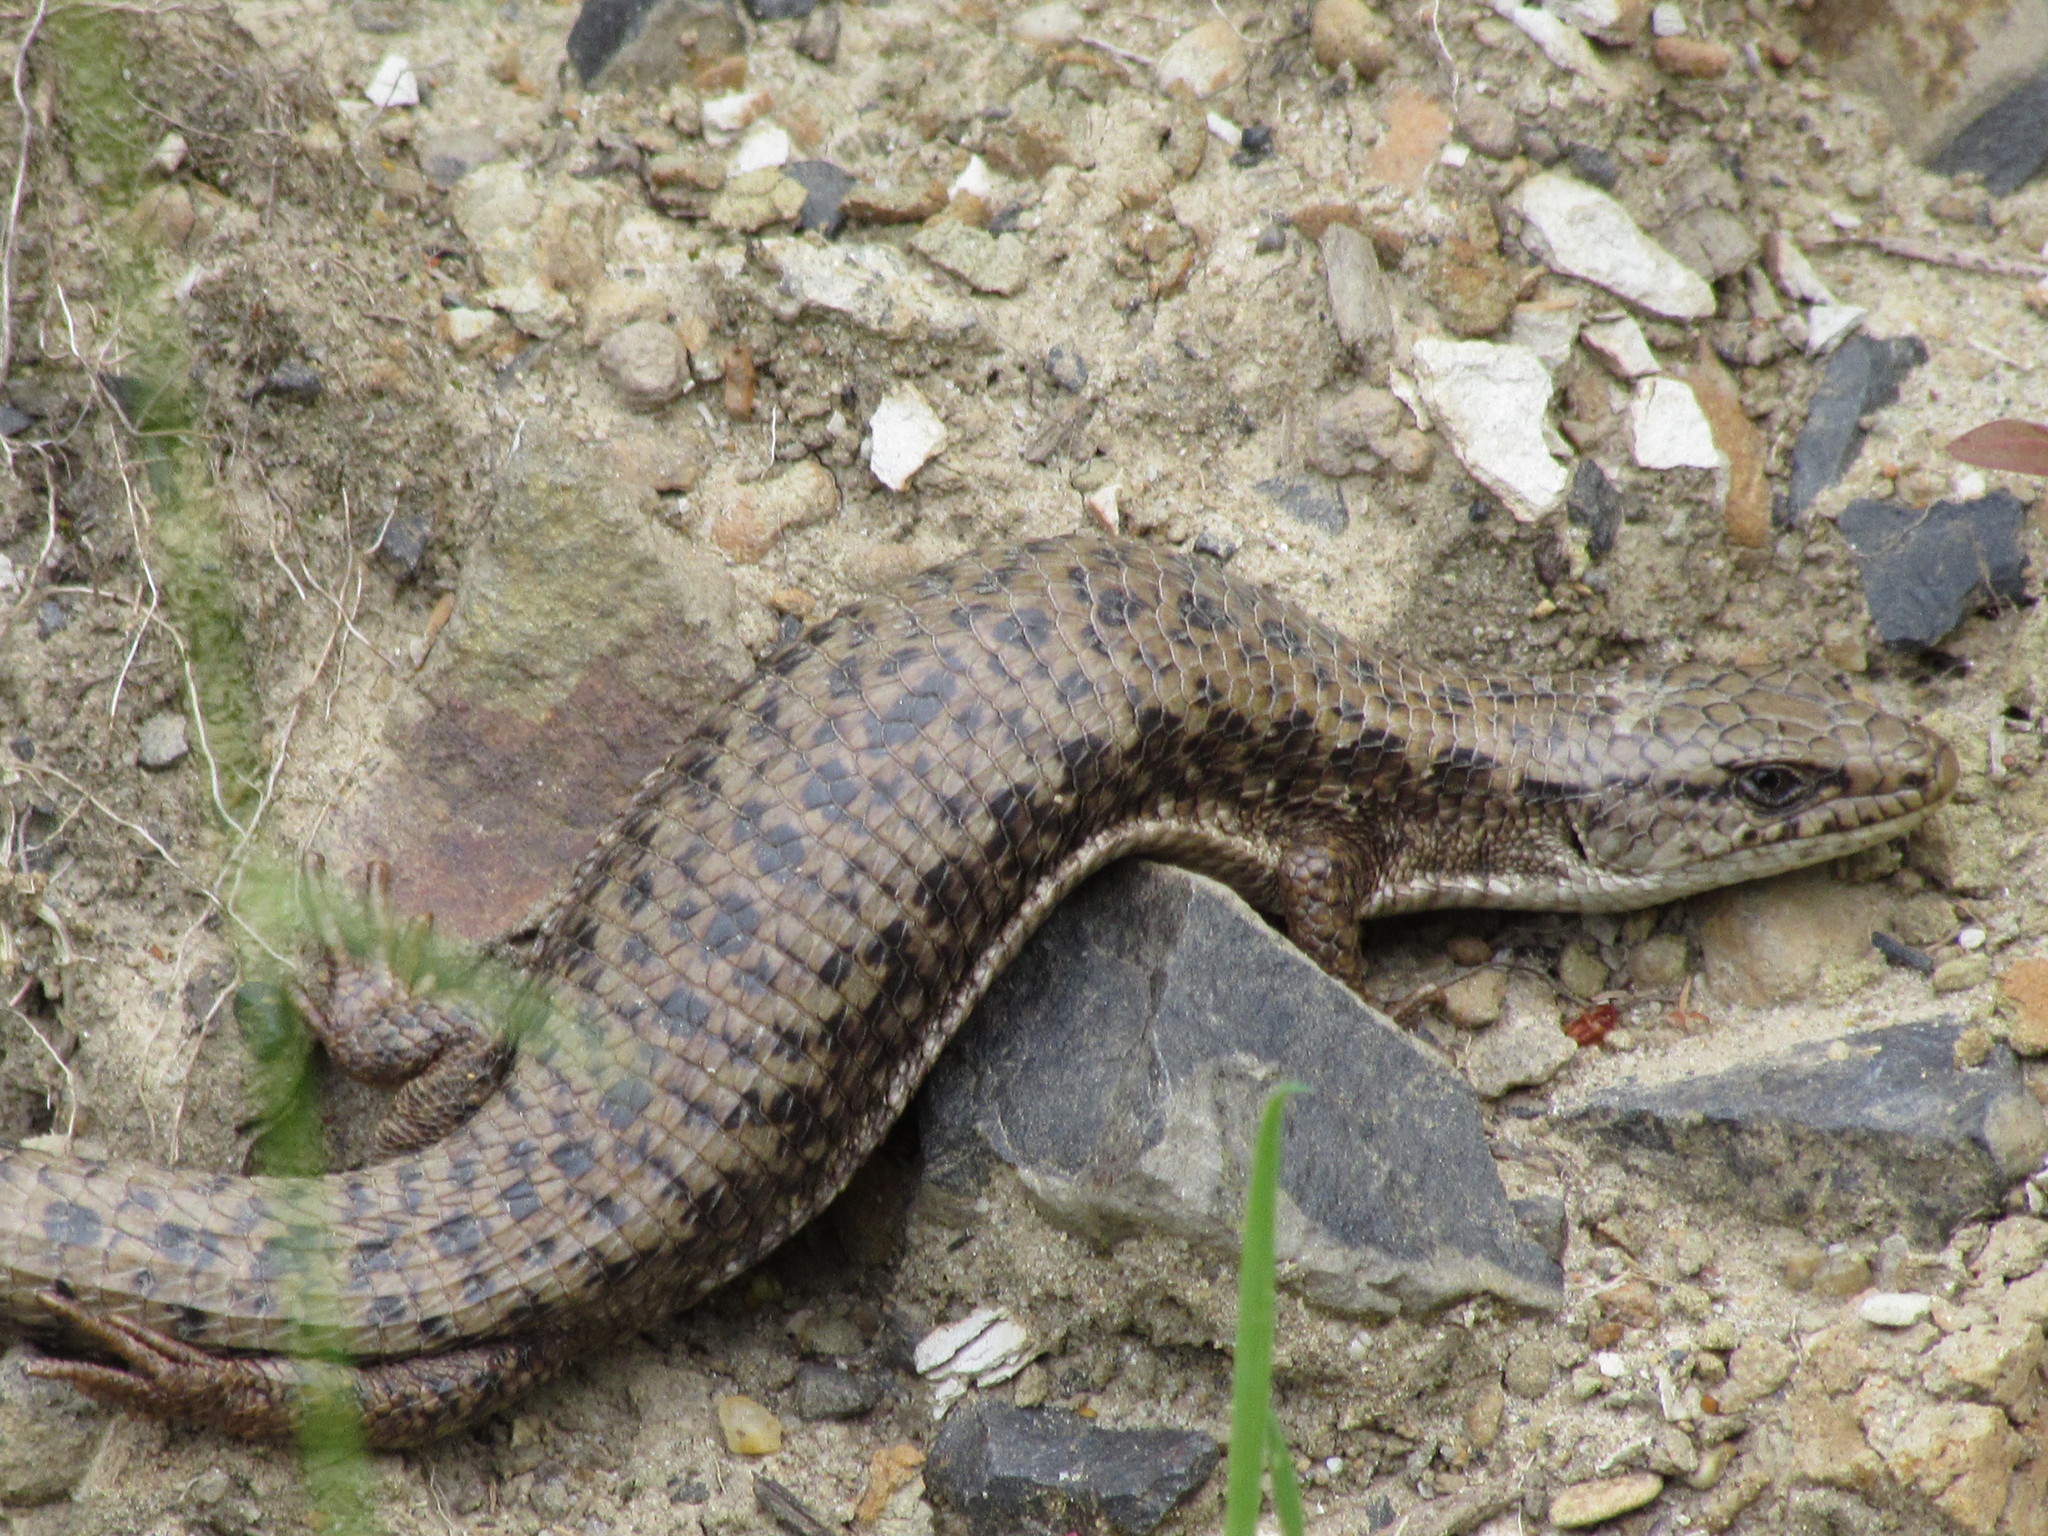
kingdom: Animalia
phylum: Chordata
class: Squamata
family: Anguidae
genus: Elgaria
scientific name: Elgaria coerulea
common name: Northern alligator lizard
